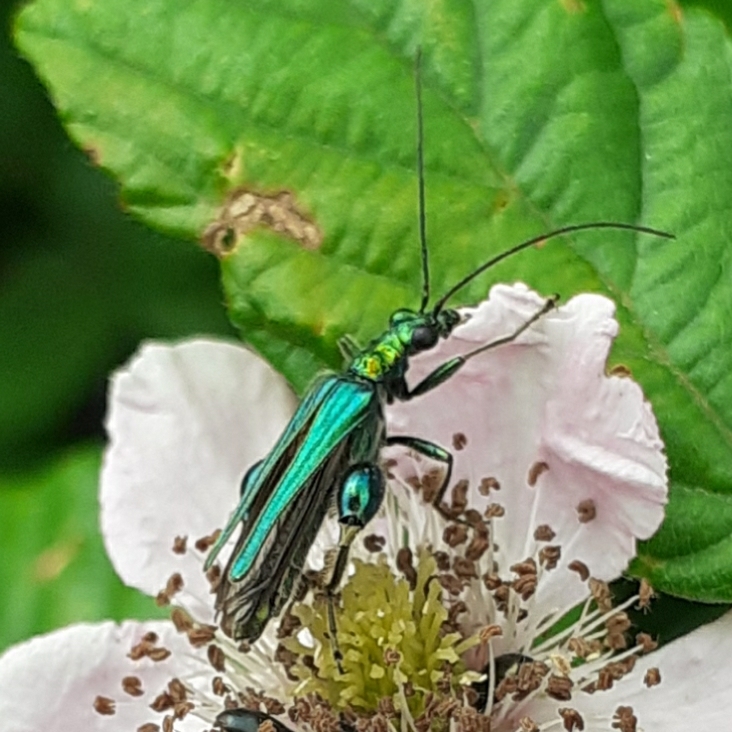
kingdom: Animalia
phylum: Arthropoda
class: Insecta
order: Coleoptera
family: Oedemeridae
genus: Oedemera
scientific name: Oedemera nobilis
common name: Swollen-thighed beetle
